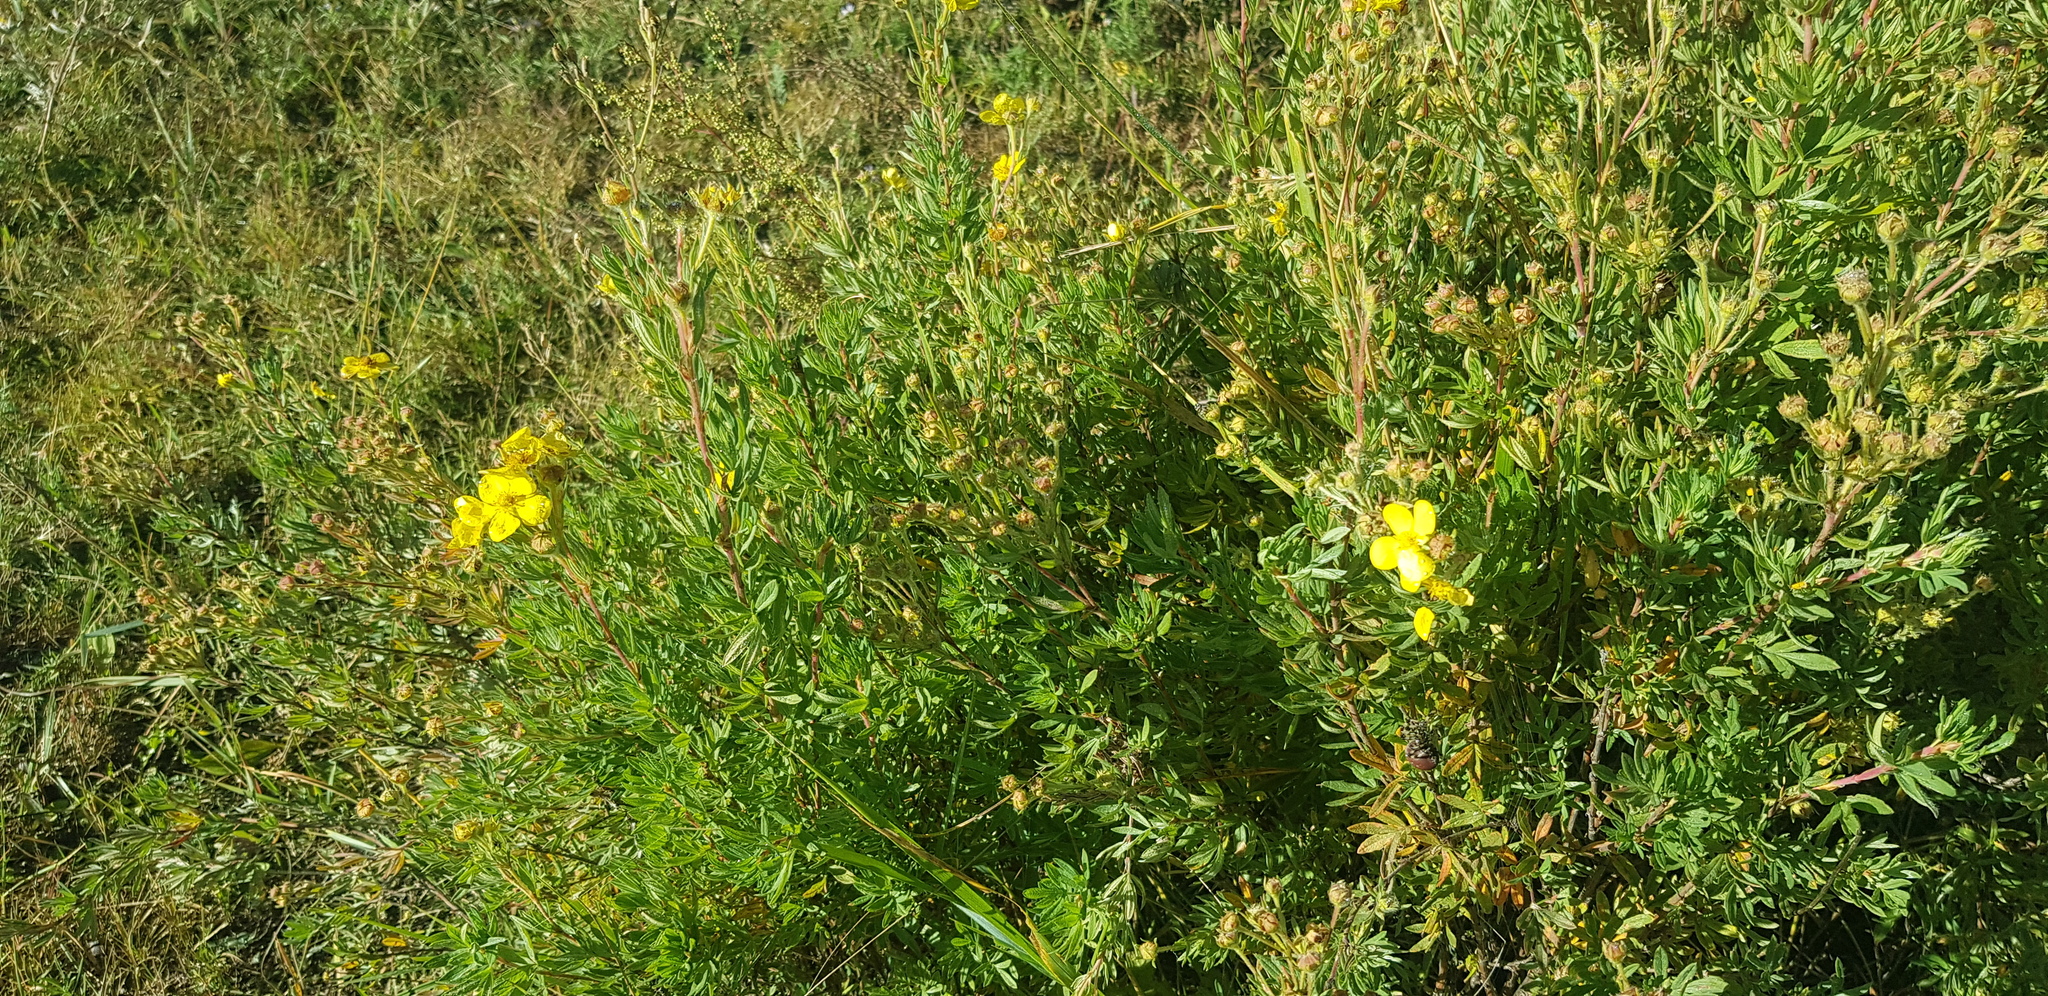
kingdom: Plantae
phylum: Tracheophyta
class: Magnoliopsida
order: Rosales
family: Rosaceae
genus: Dasiphora
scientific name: Dasiphora fruticosa
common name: Shrubby cinquefoil
